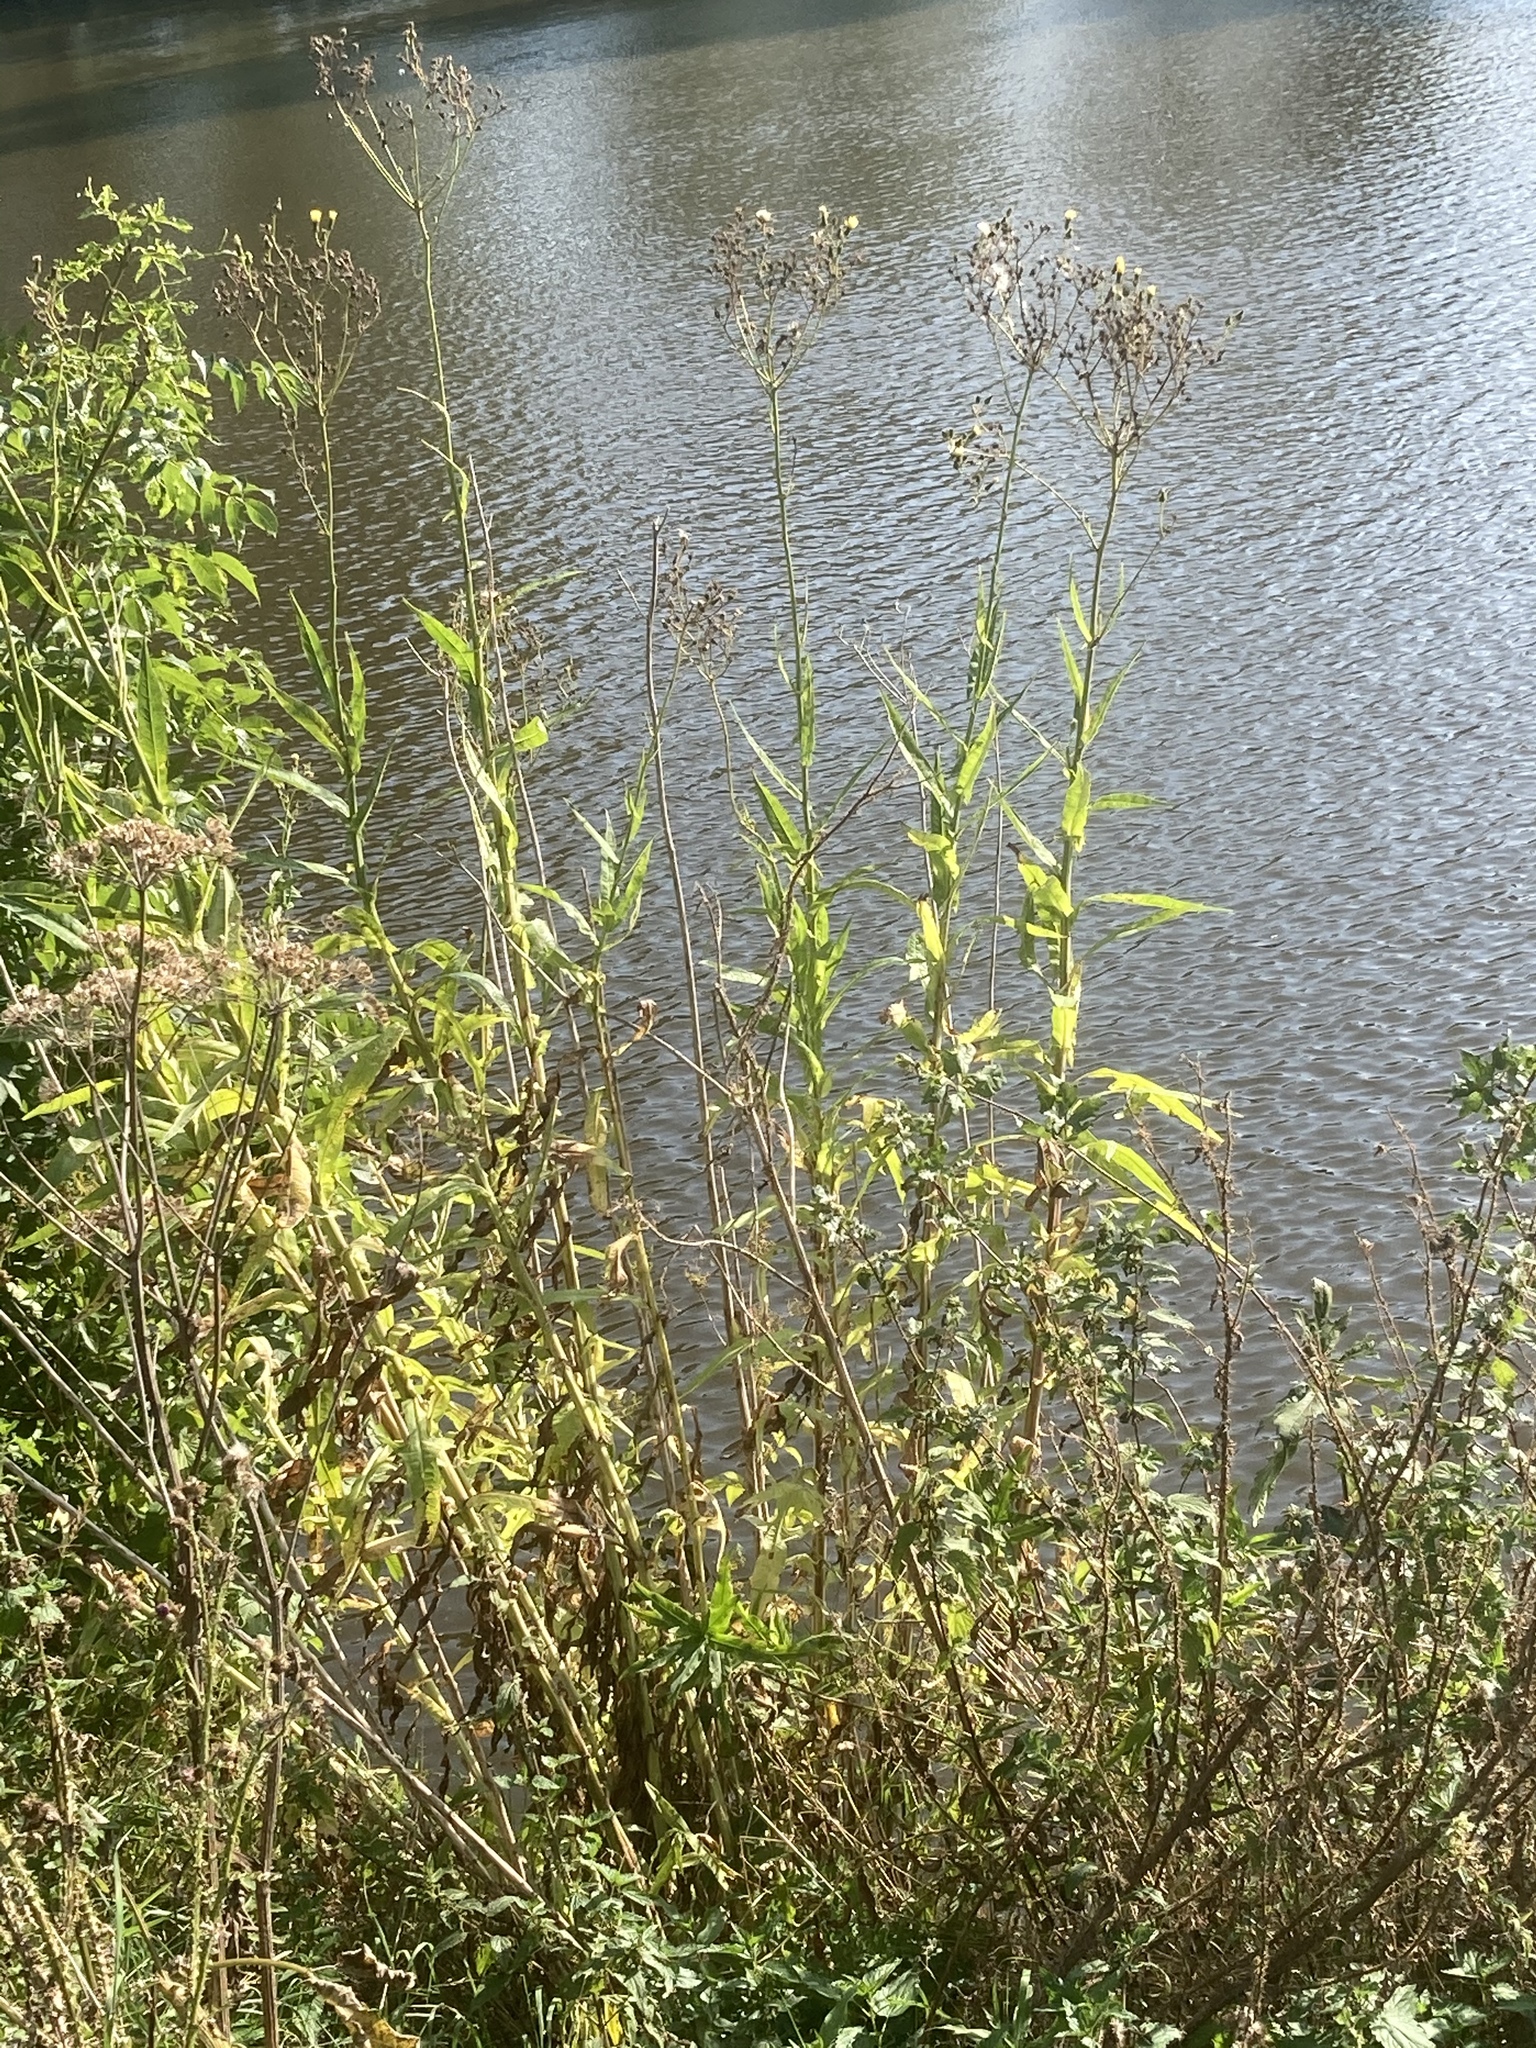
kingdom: Plantae
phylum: Tracheophyta
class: Magnoliopsida
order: Asterales
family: Asteraceae
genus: Sonchus
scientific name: Sonchus palustris
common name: Marsh sow-thistle
